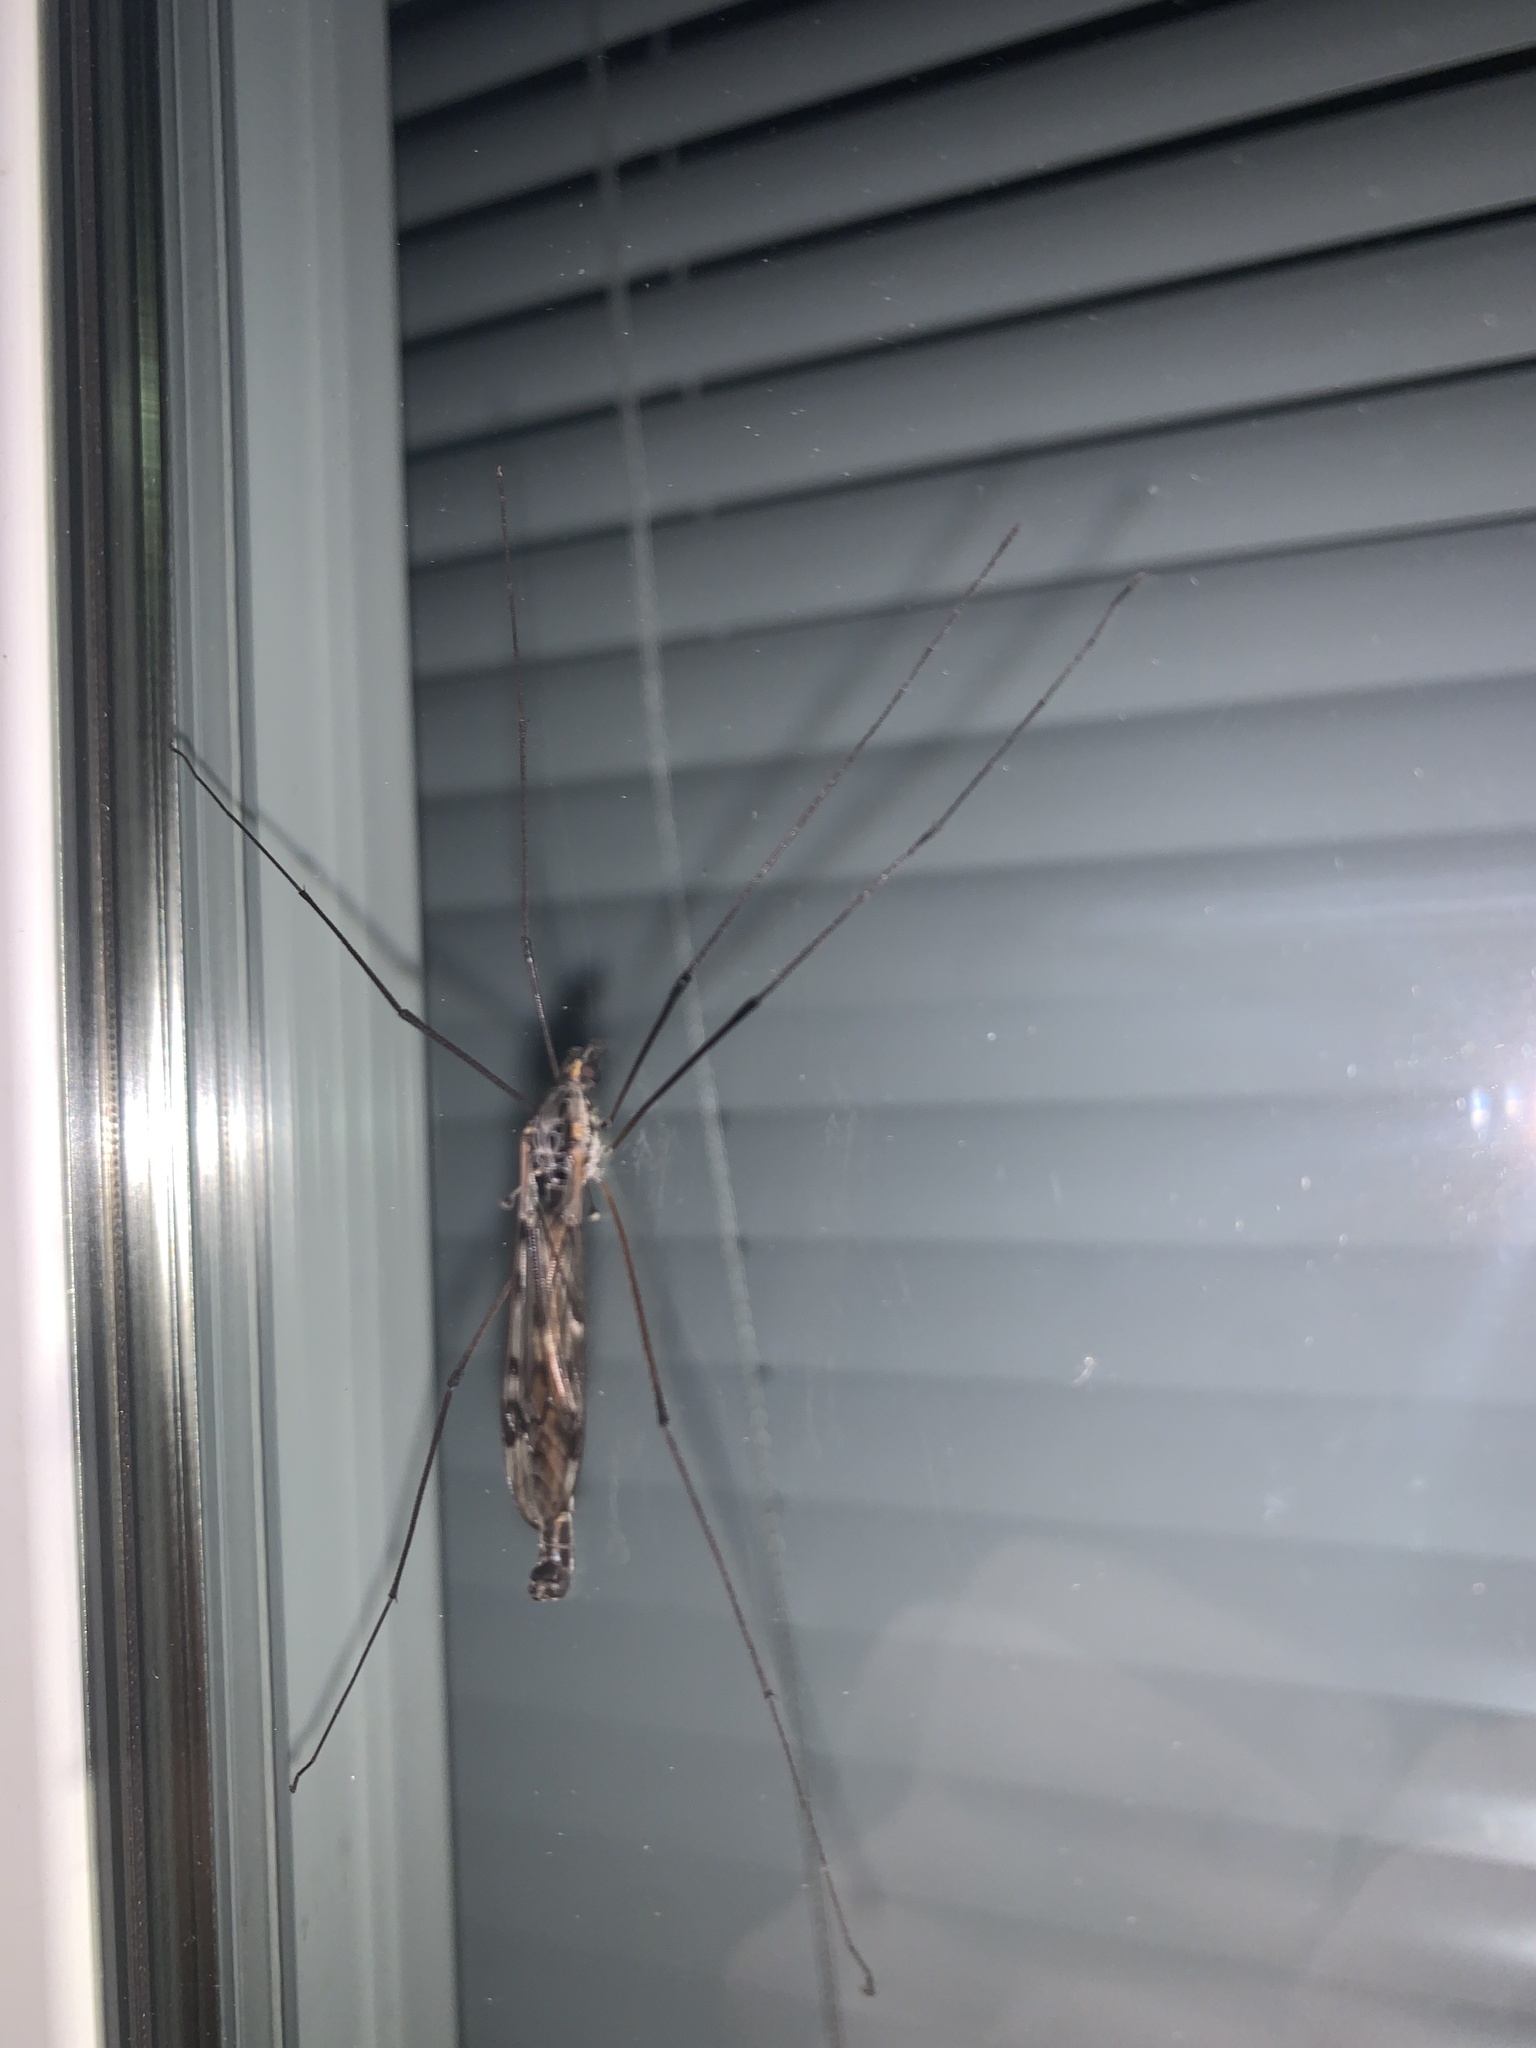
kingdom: Animalia
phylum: Arthropoda
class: Insecta
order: Diptera
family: Tipulidae
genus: Tipula
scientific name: Tipula metacomet
